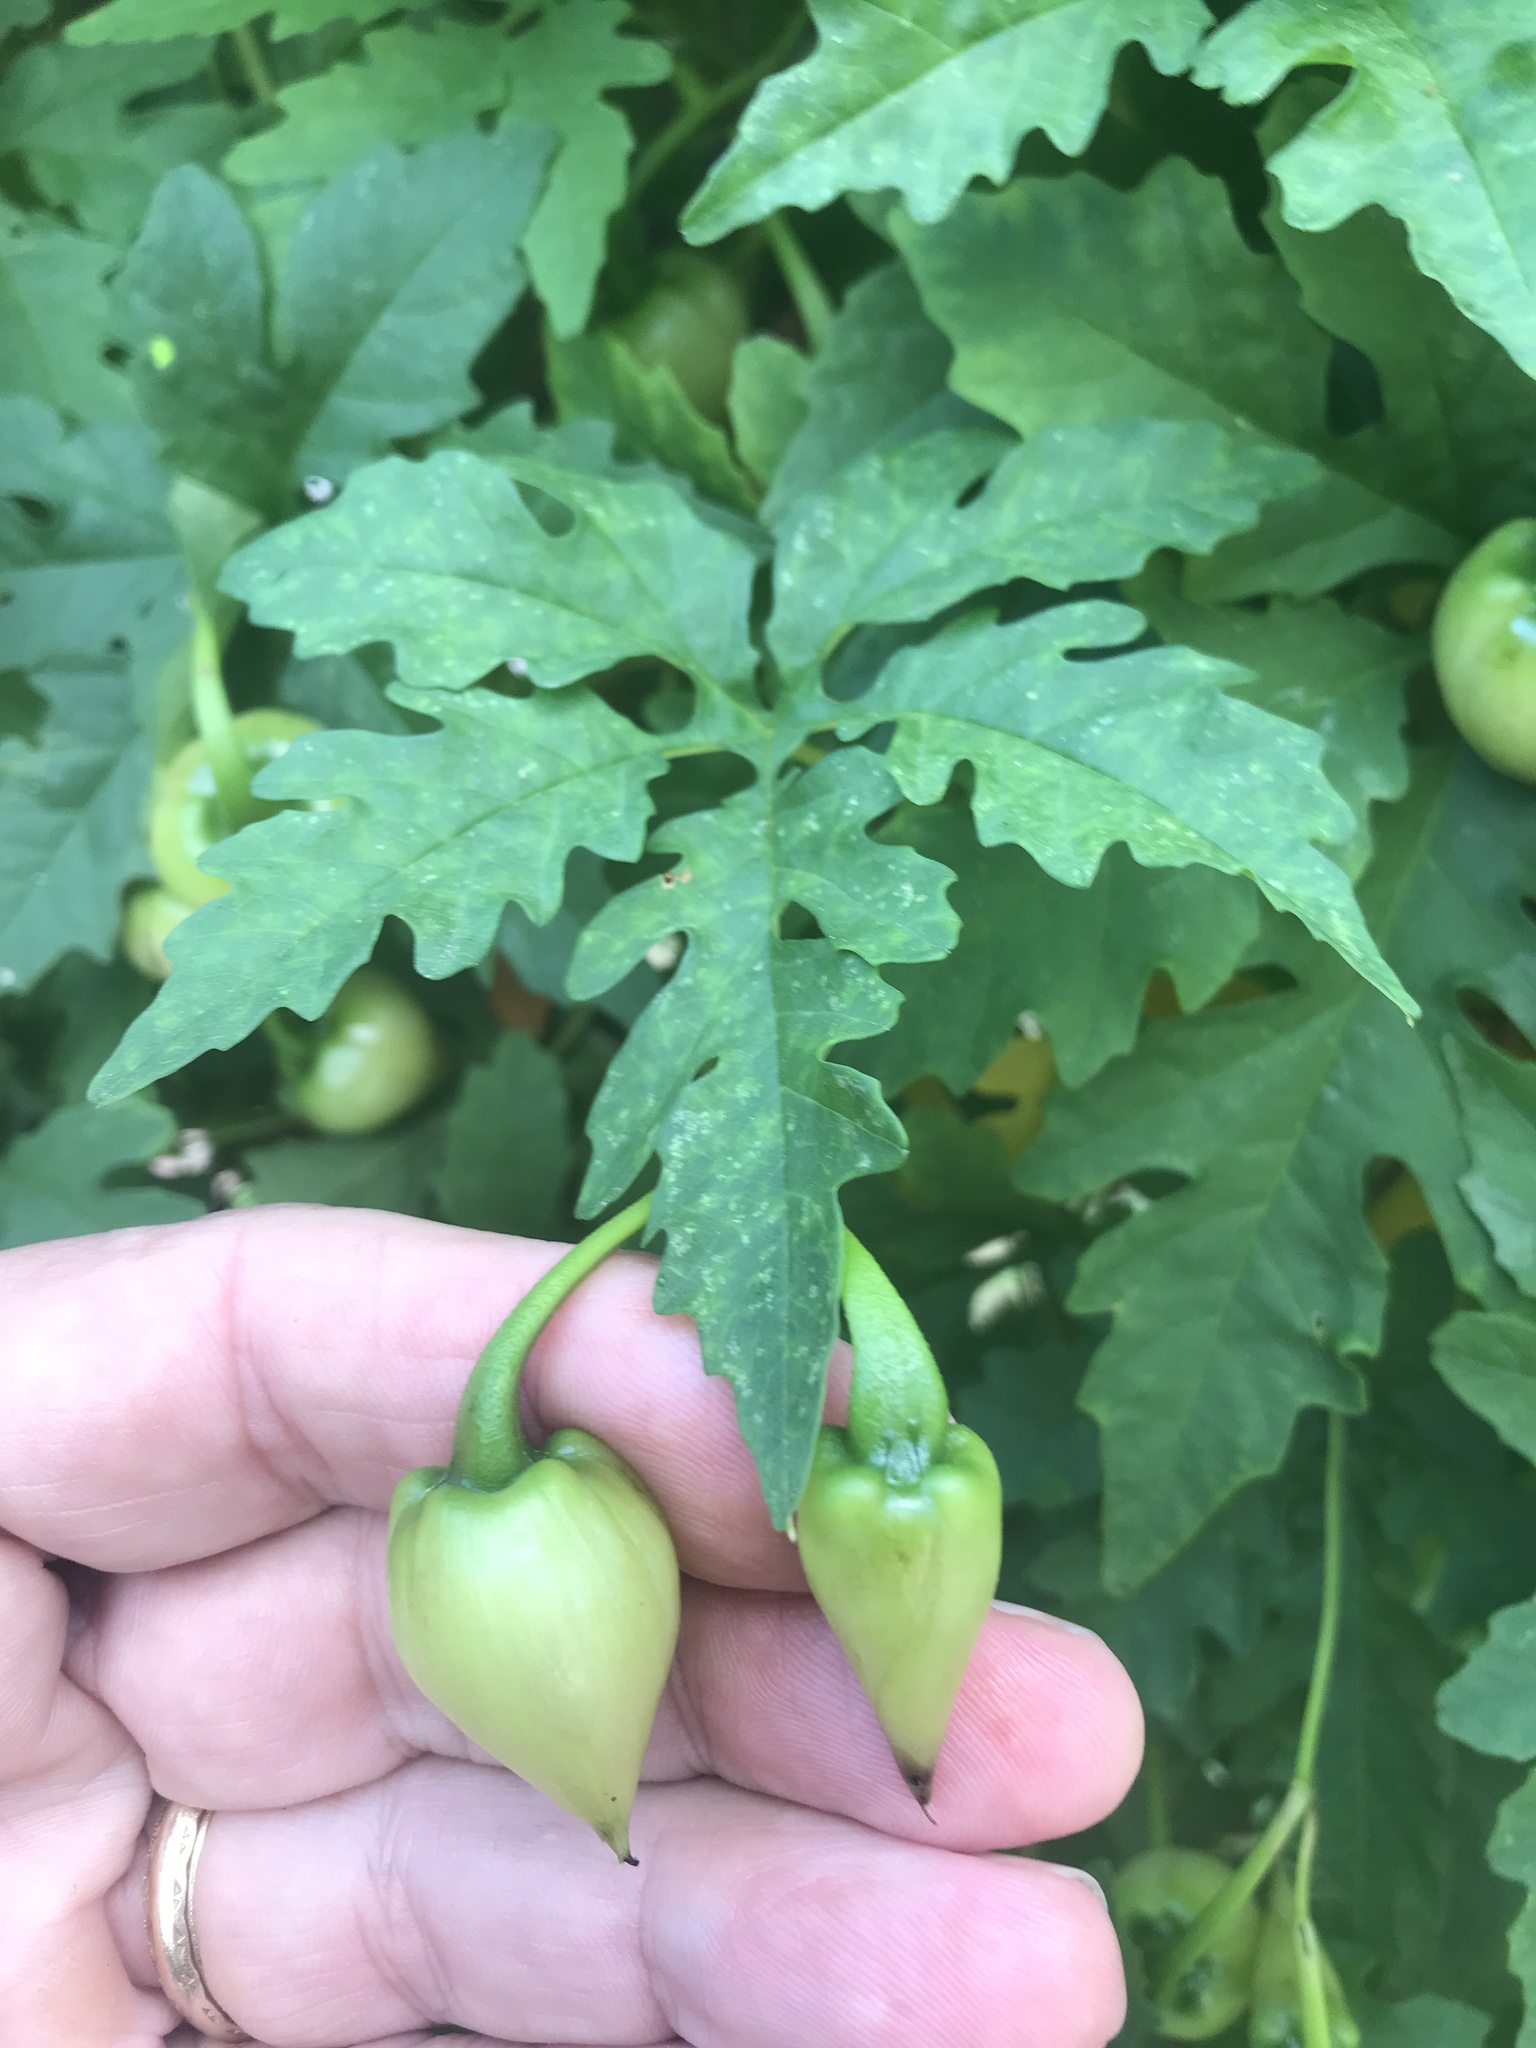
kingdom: Plantae
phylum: Tracheophyta
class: Magnoliopsida
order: Solanales
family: Convolvulaceae
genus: Distimake
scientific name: Distimake dissectus
